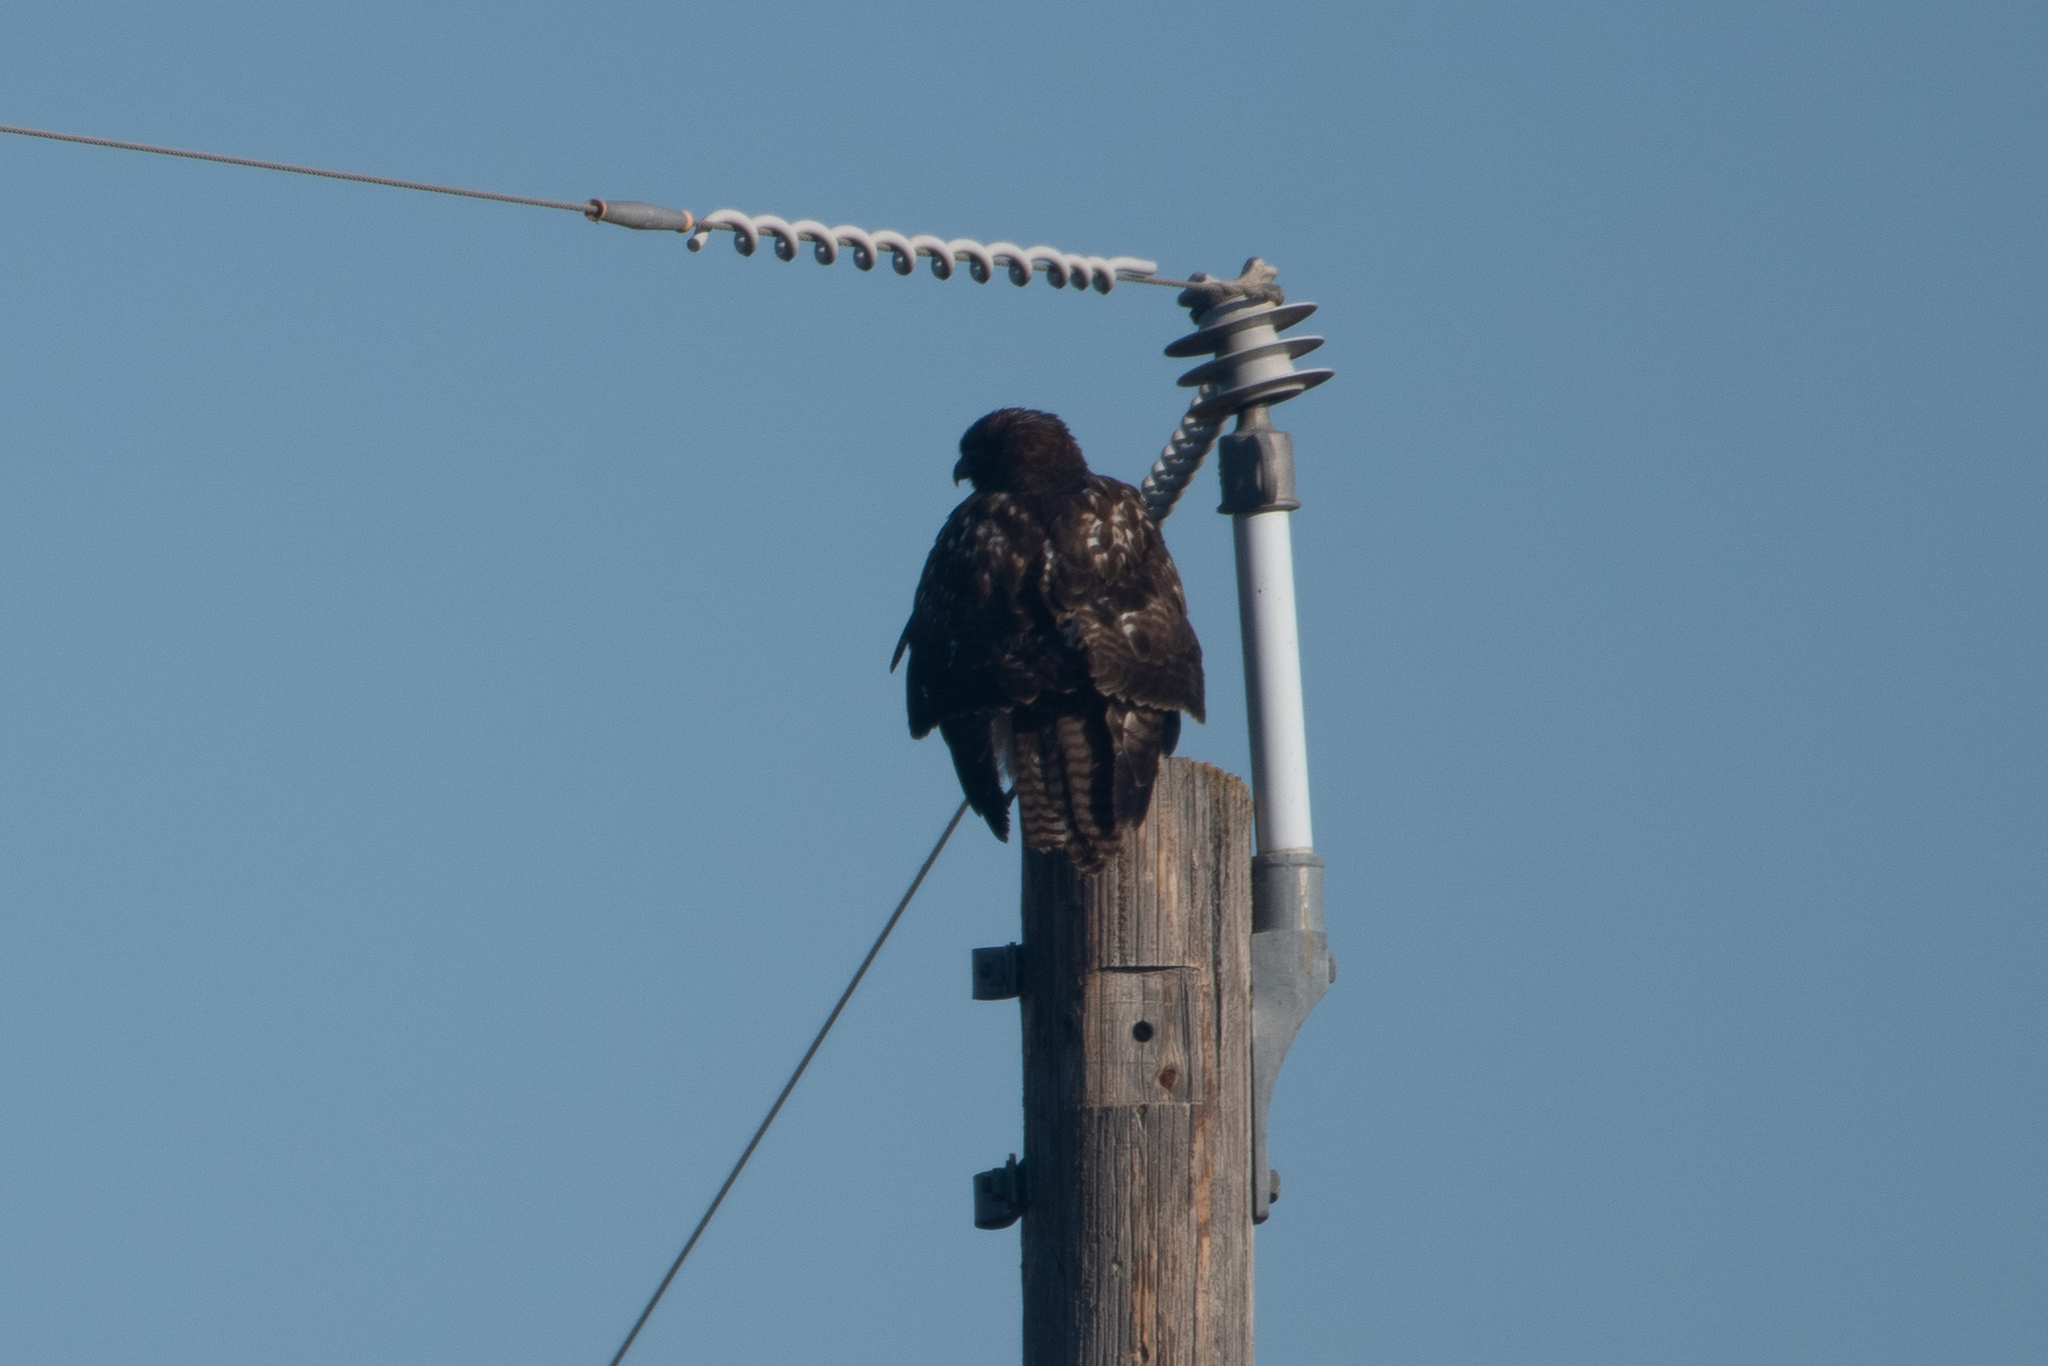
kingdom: Animalia
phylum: Chordata
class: Aves
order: Accipitriformes
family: Accipitridae
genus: Buteo
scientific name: Buteo jamaicensis
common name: Red-tailed hawk
